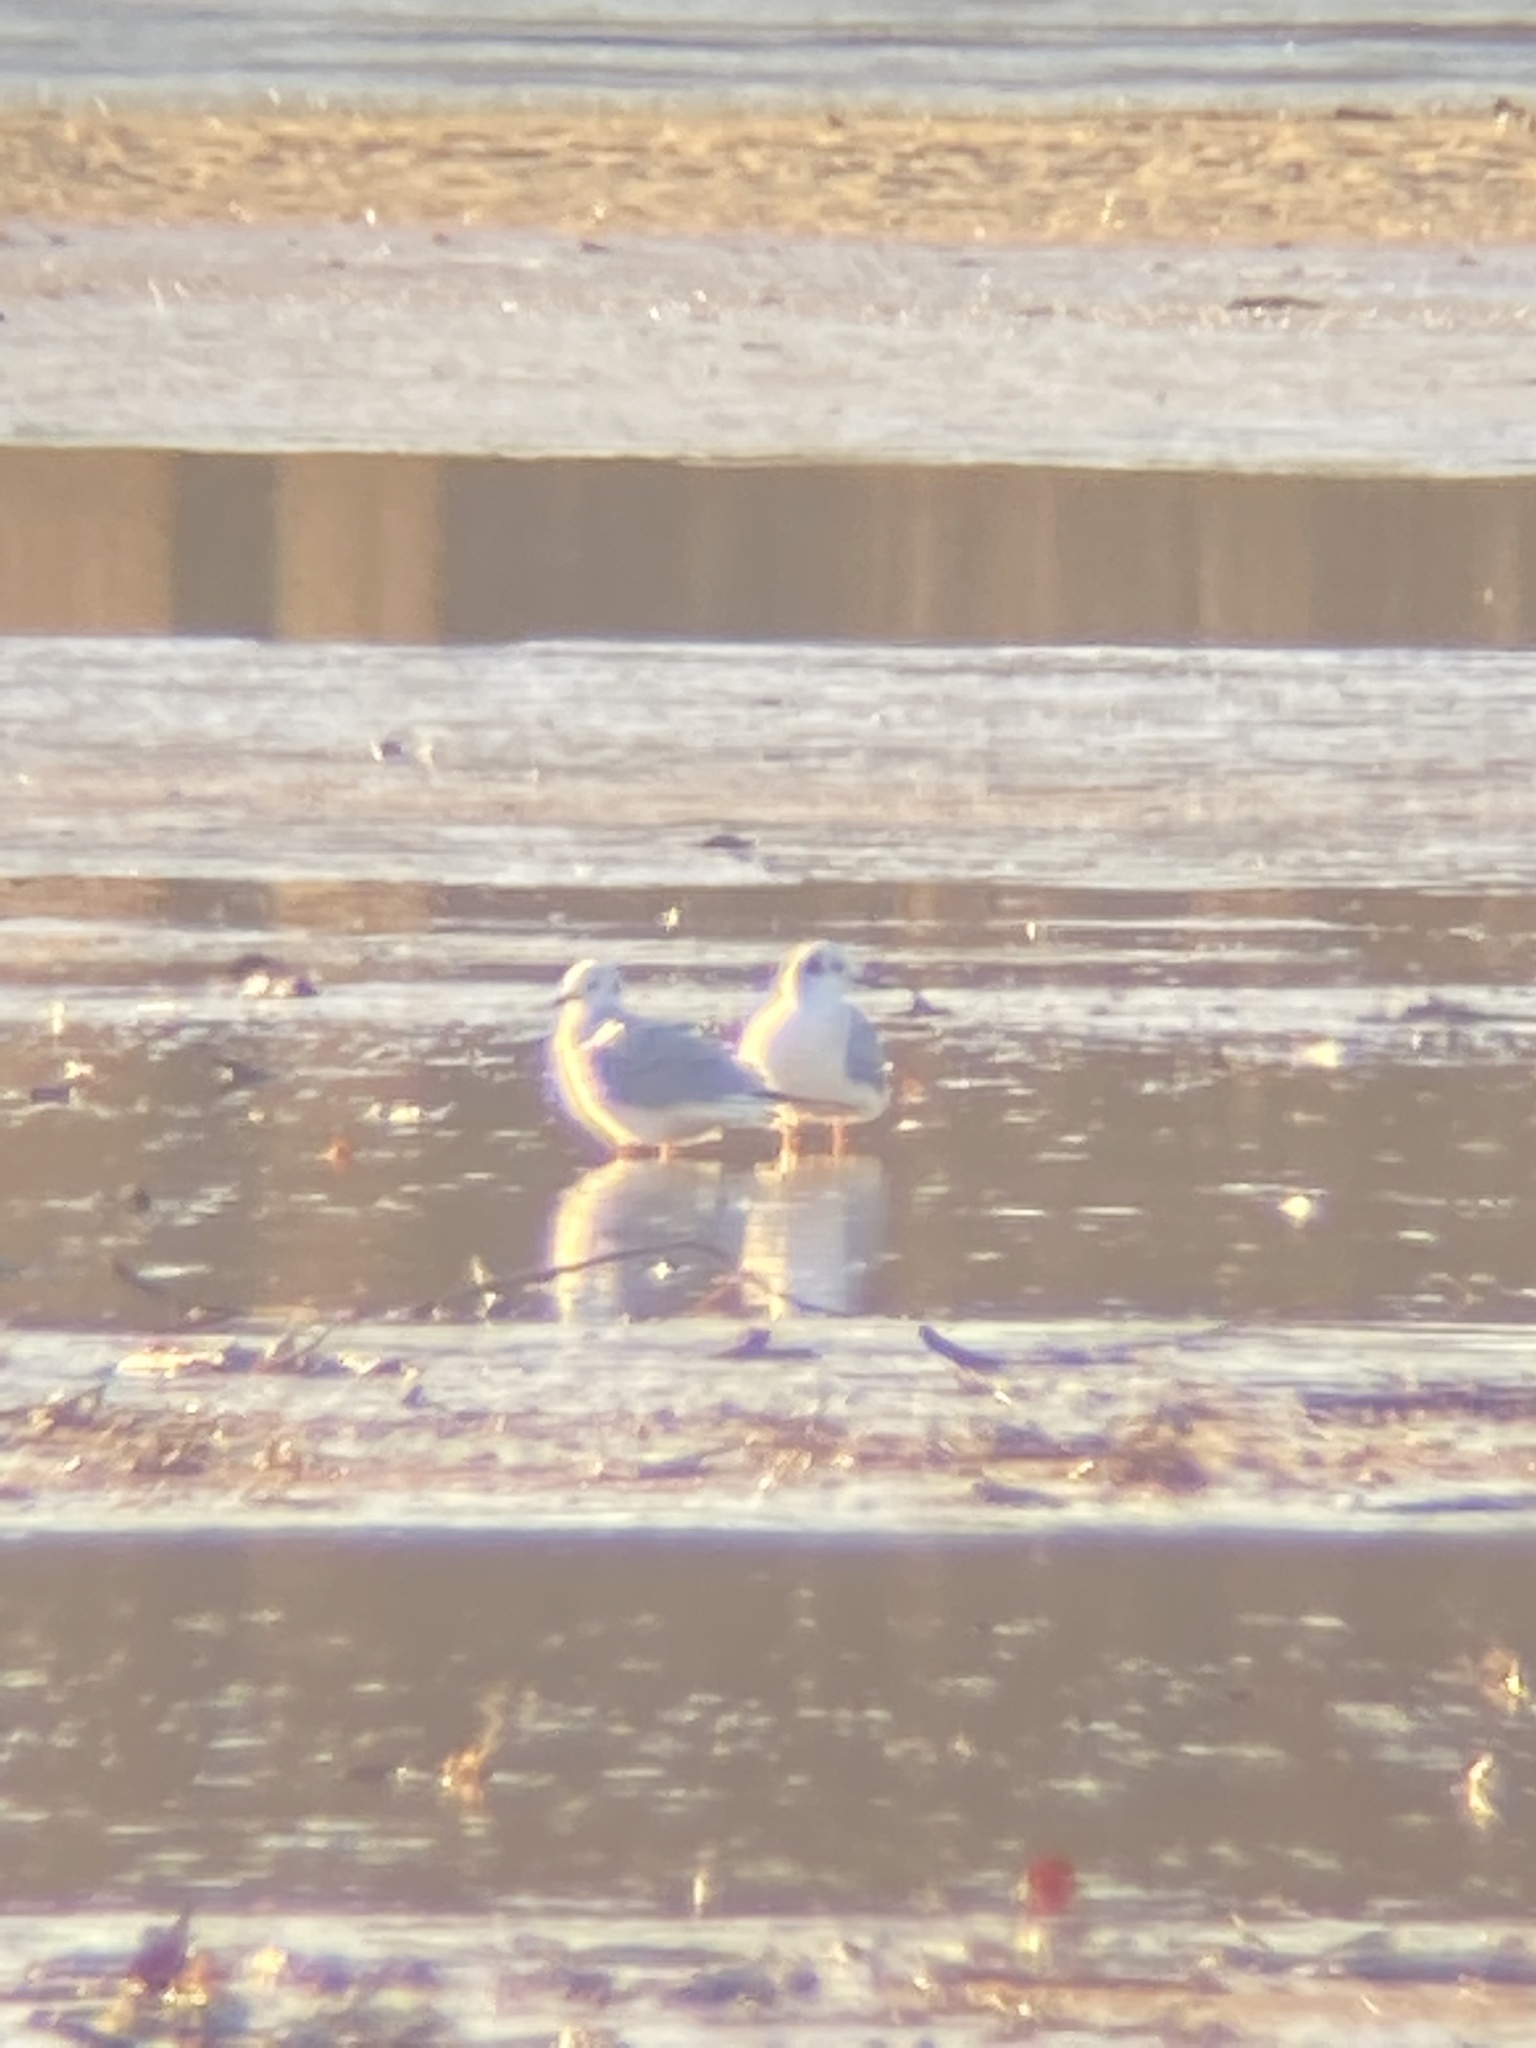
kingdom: Animalia
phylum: Chordata
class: Aves
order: Charadriiformes
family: Laridae
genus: Chroicocephalus
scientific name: Chroicocephalus philadelphia
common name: Bonaparte's gull
